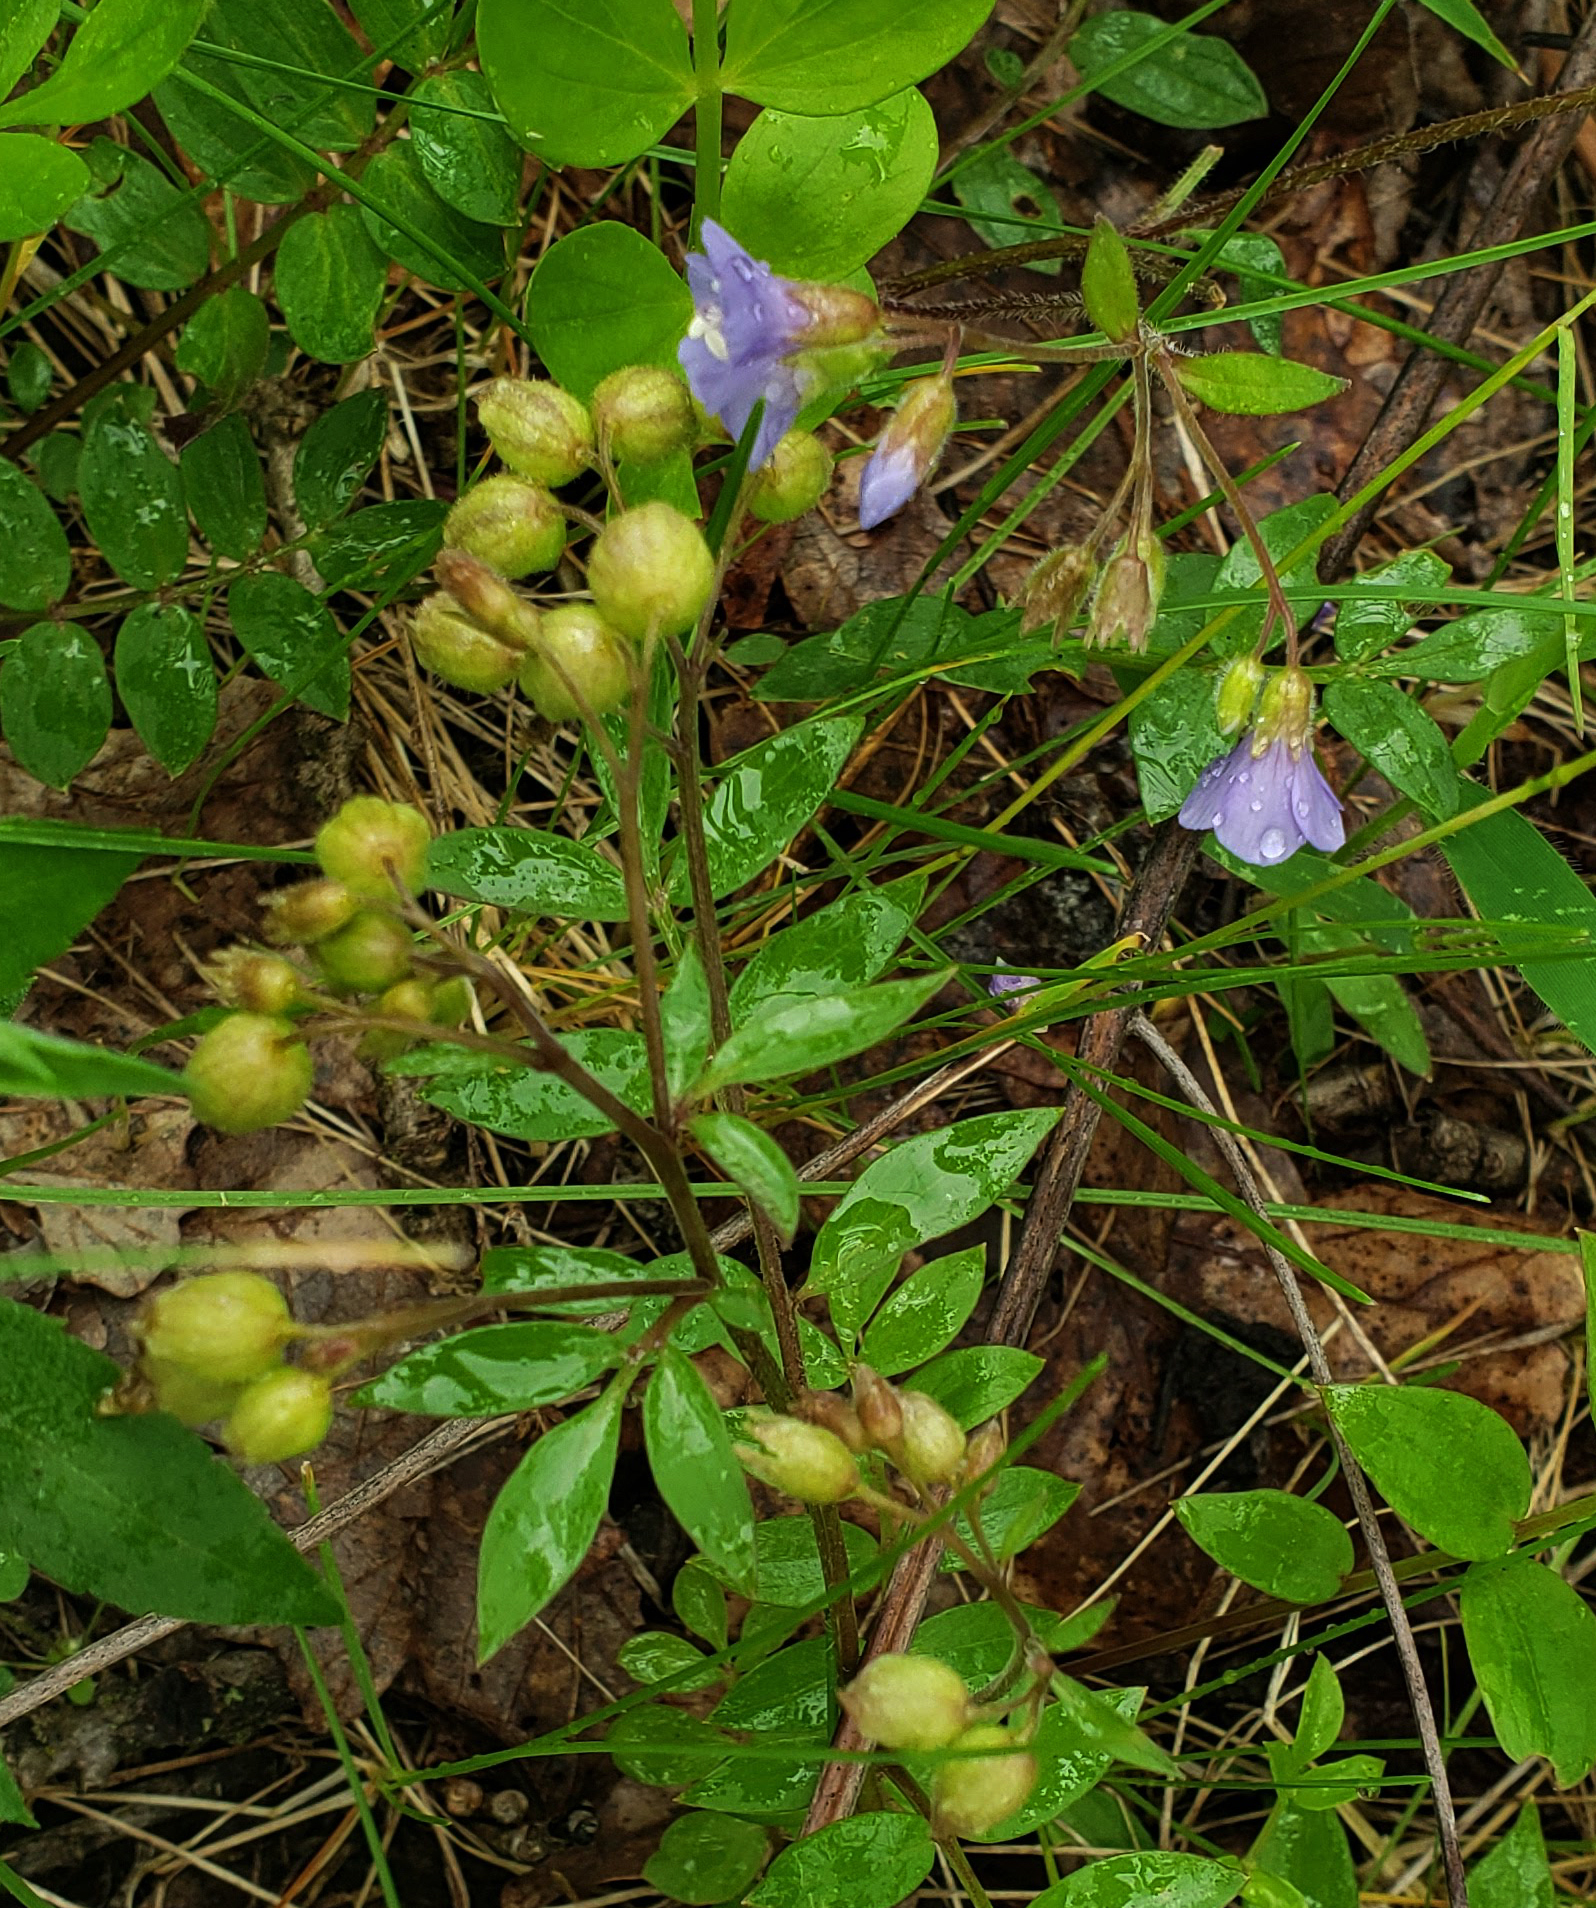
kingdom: Plantae
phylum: Tracheophyta
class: Magnoliopsida
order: Ericales
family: Polemoniaceae
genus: Polemonium
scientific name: Polemonium reptans
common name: Creeping jacob's-ladder
